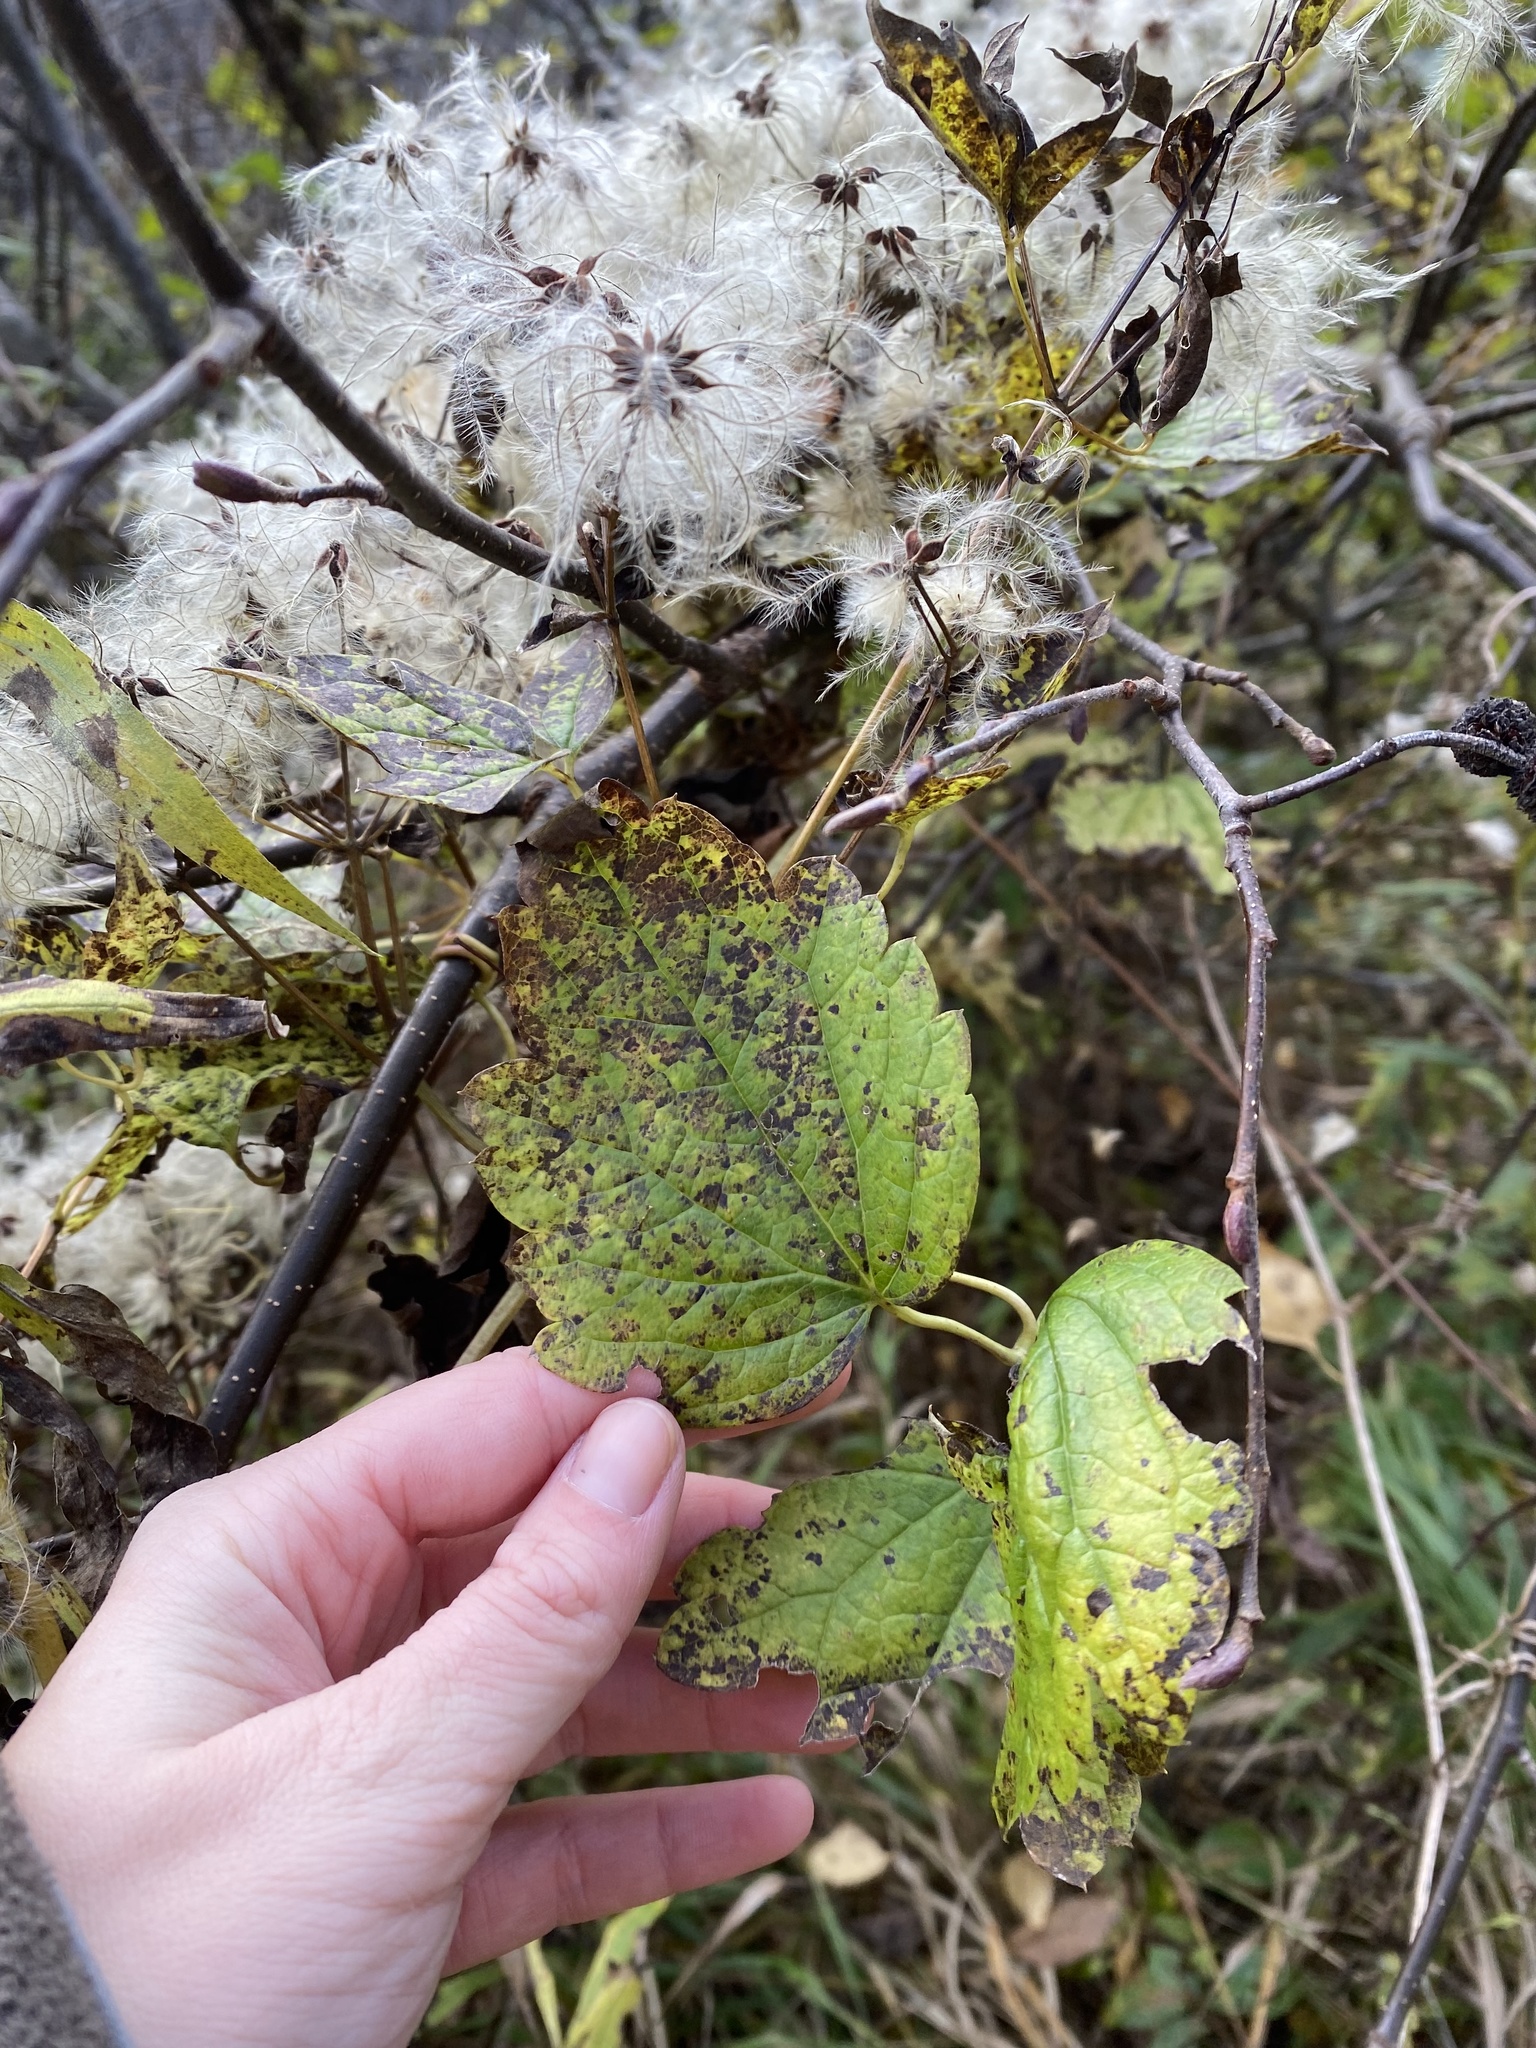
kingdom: Plantae
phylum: Tracheophyta
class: Magnoliopsida
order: Ranunculales
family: Ranunculaceae
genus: Clematis
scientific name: Clematis virginiana
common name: Virgin's-bower
